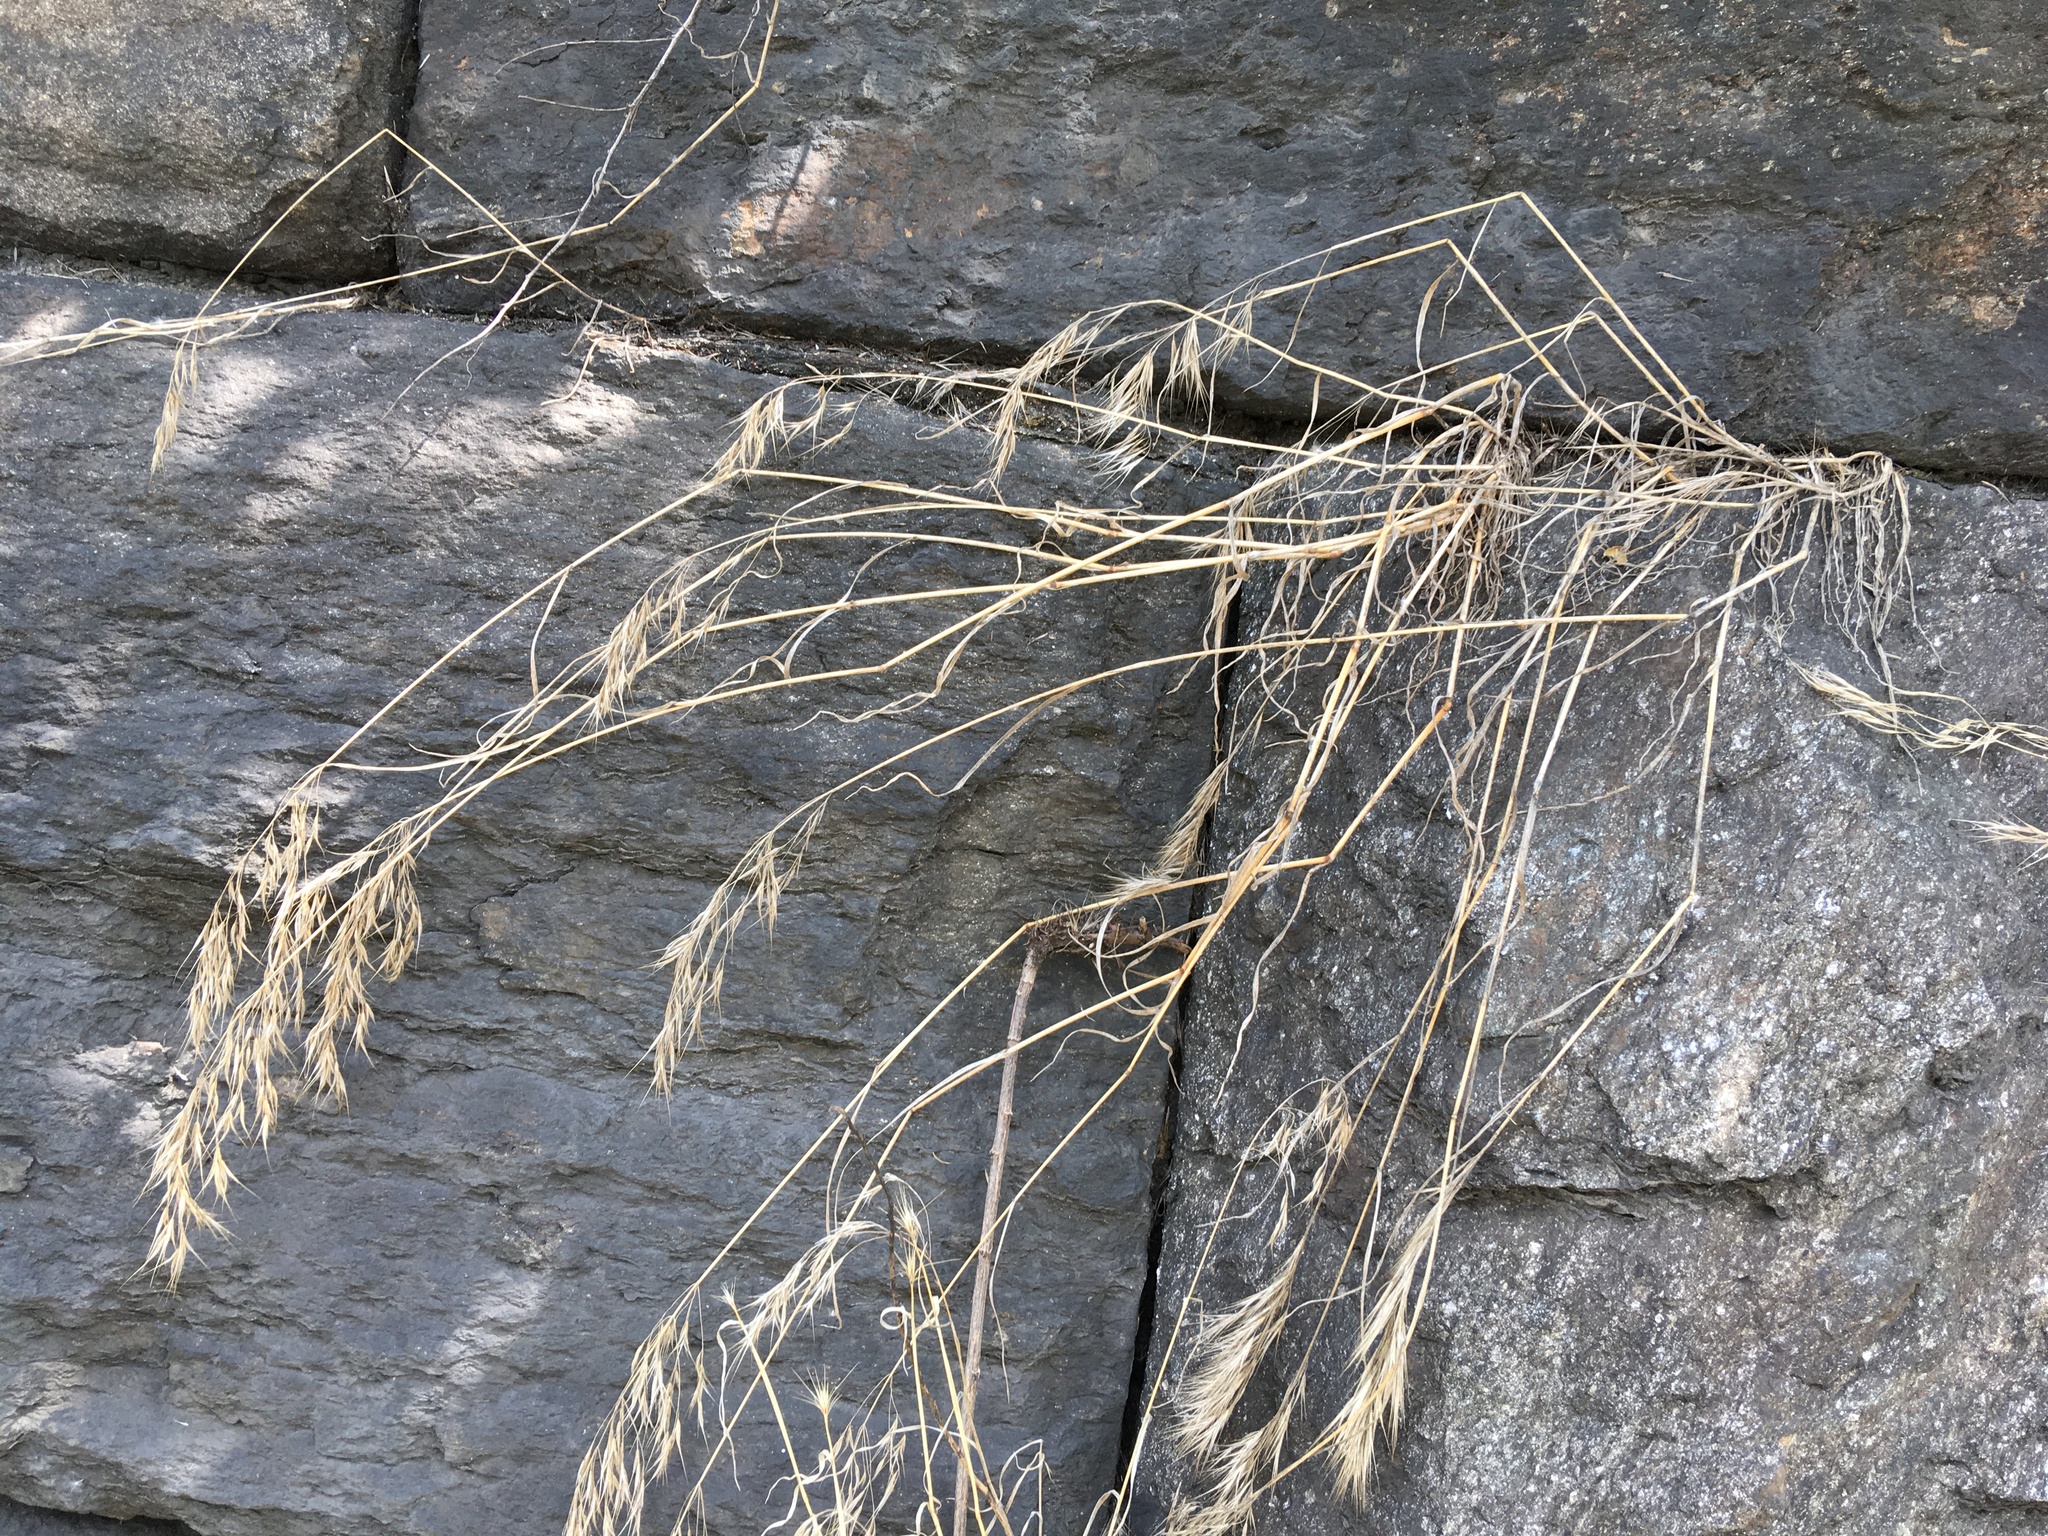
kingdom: Plantae
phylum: Tracheophyta
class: Liliopsida
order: Poales
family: Poaceae
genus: Bromus
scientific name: Bromus tectorum
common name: Cheatgrass
